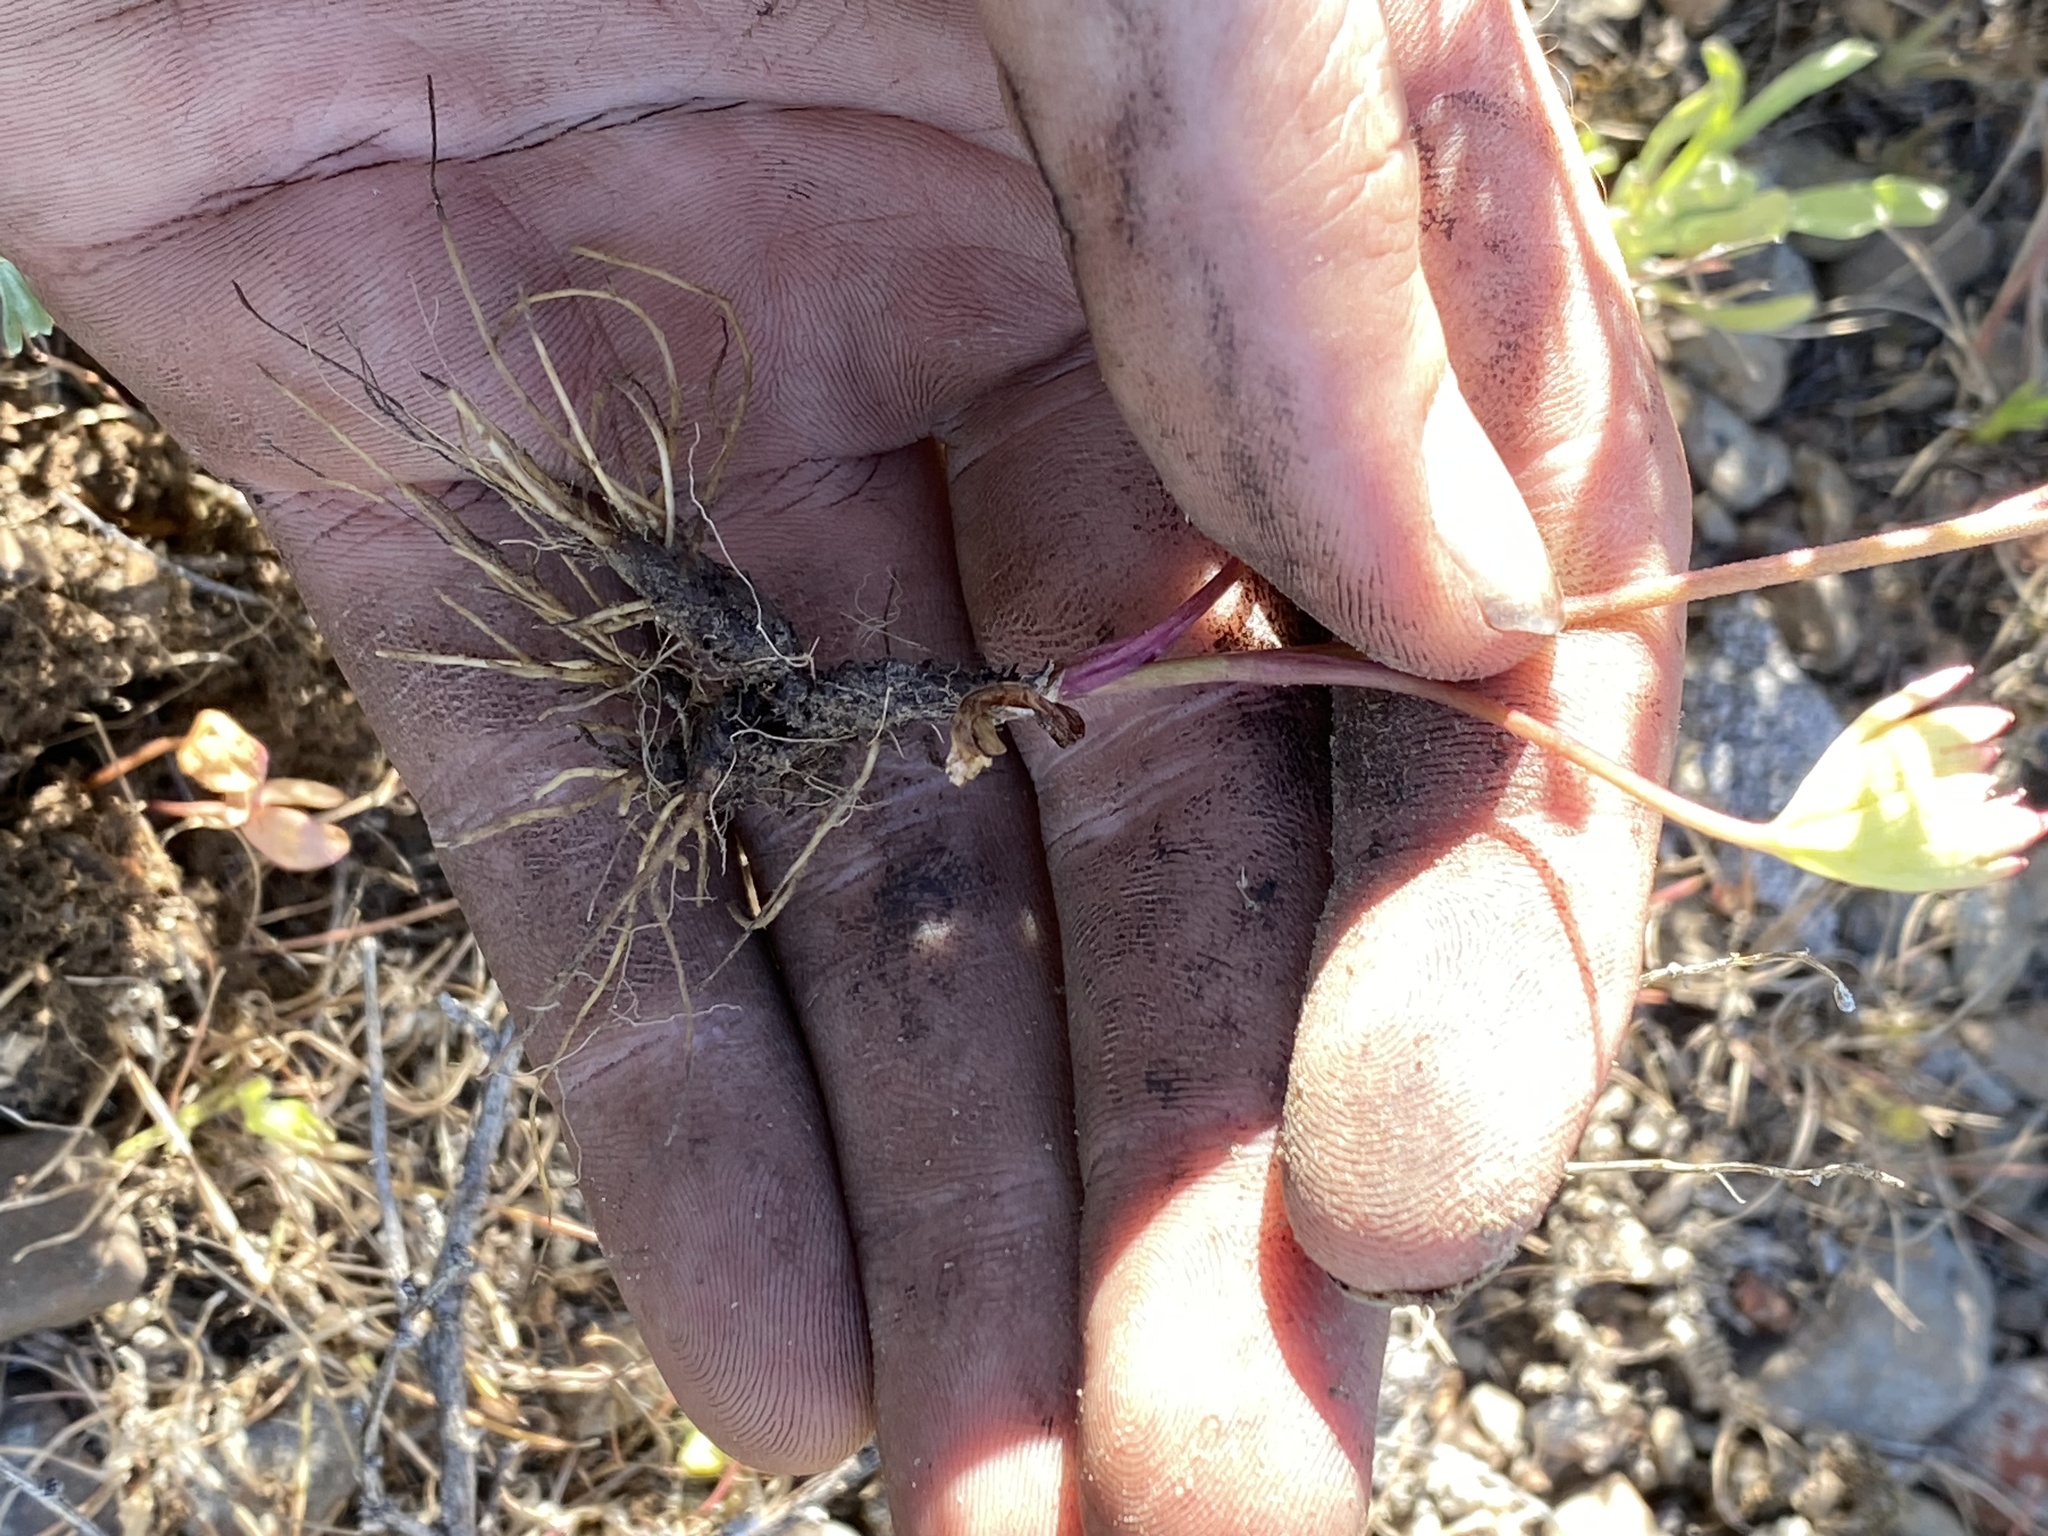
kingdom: Plantae
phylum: Tracheophyta
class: Magnoliopsida
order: Ranunculales
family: Ranunculaceae
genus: Delphinium
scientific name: Delphinium nuttallianum
